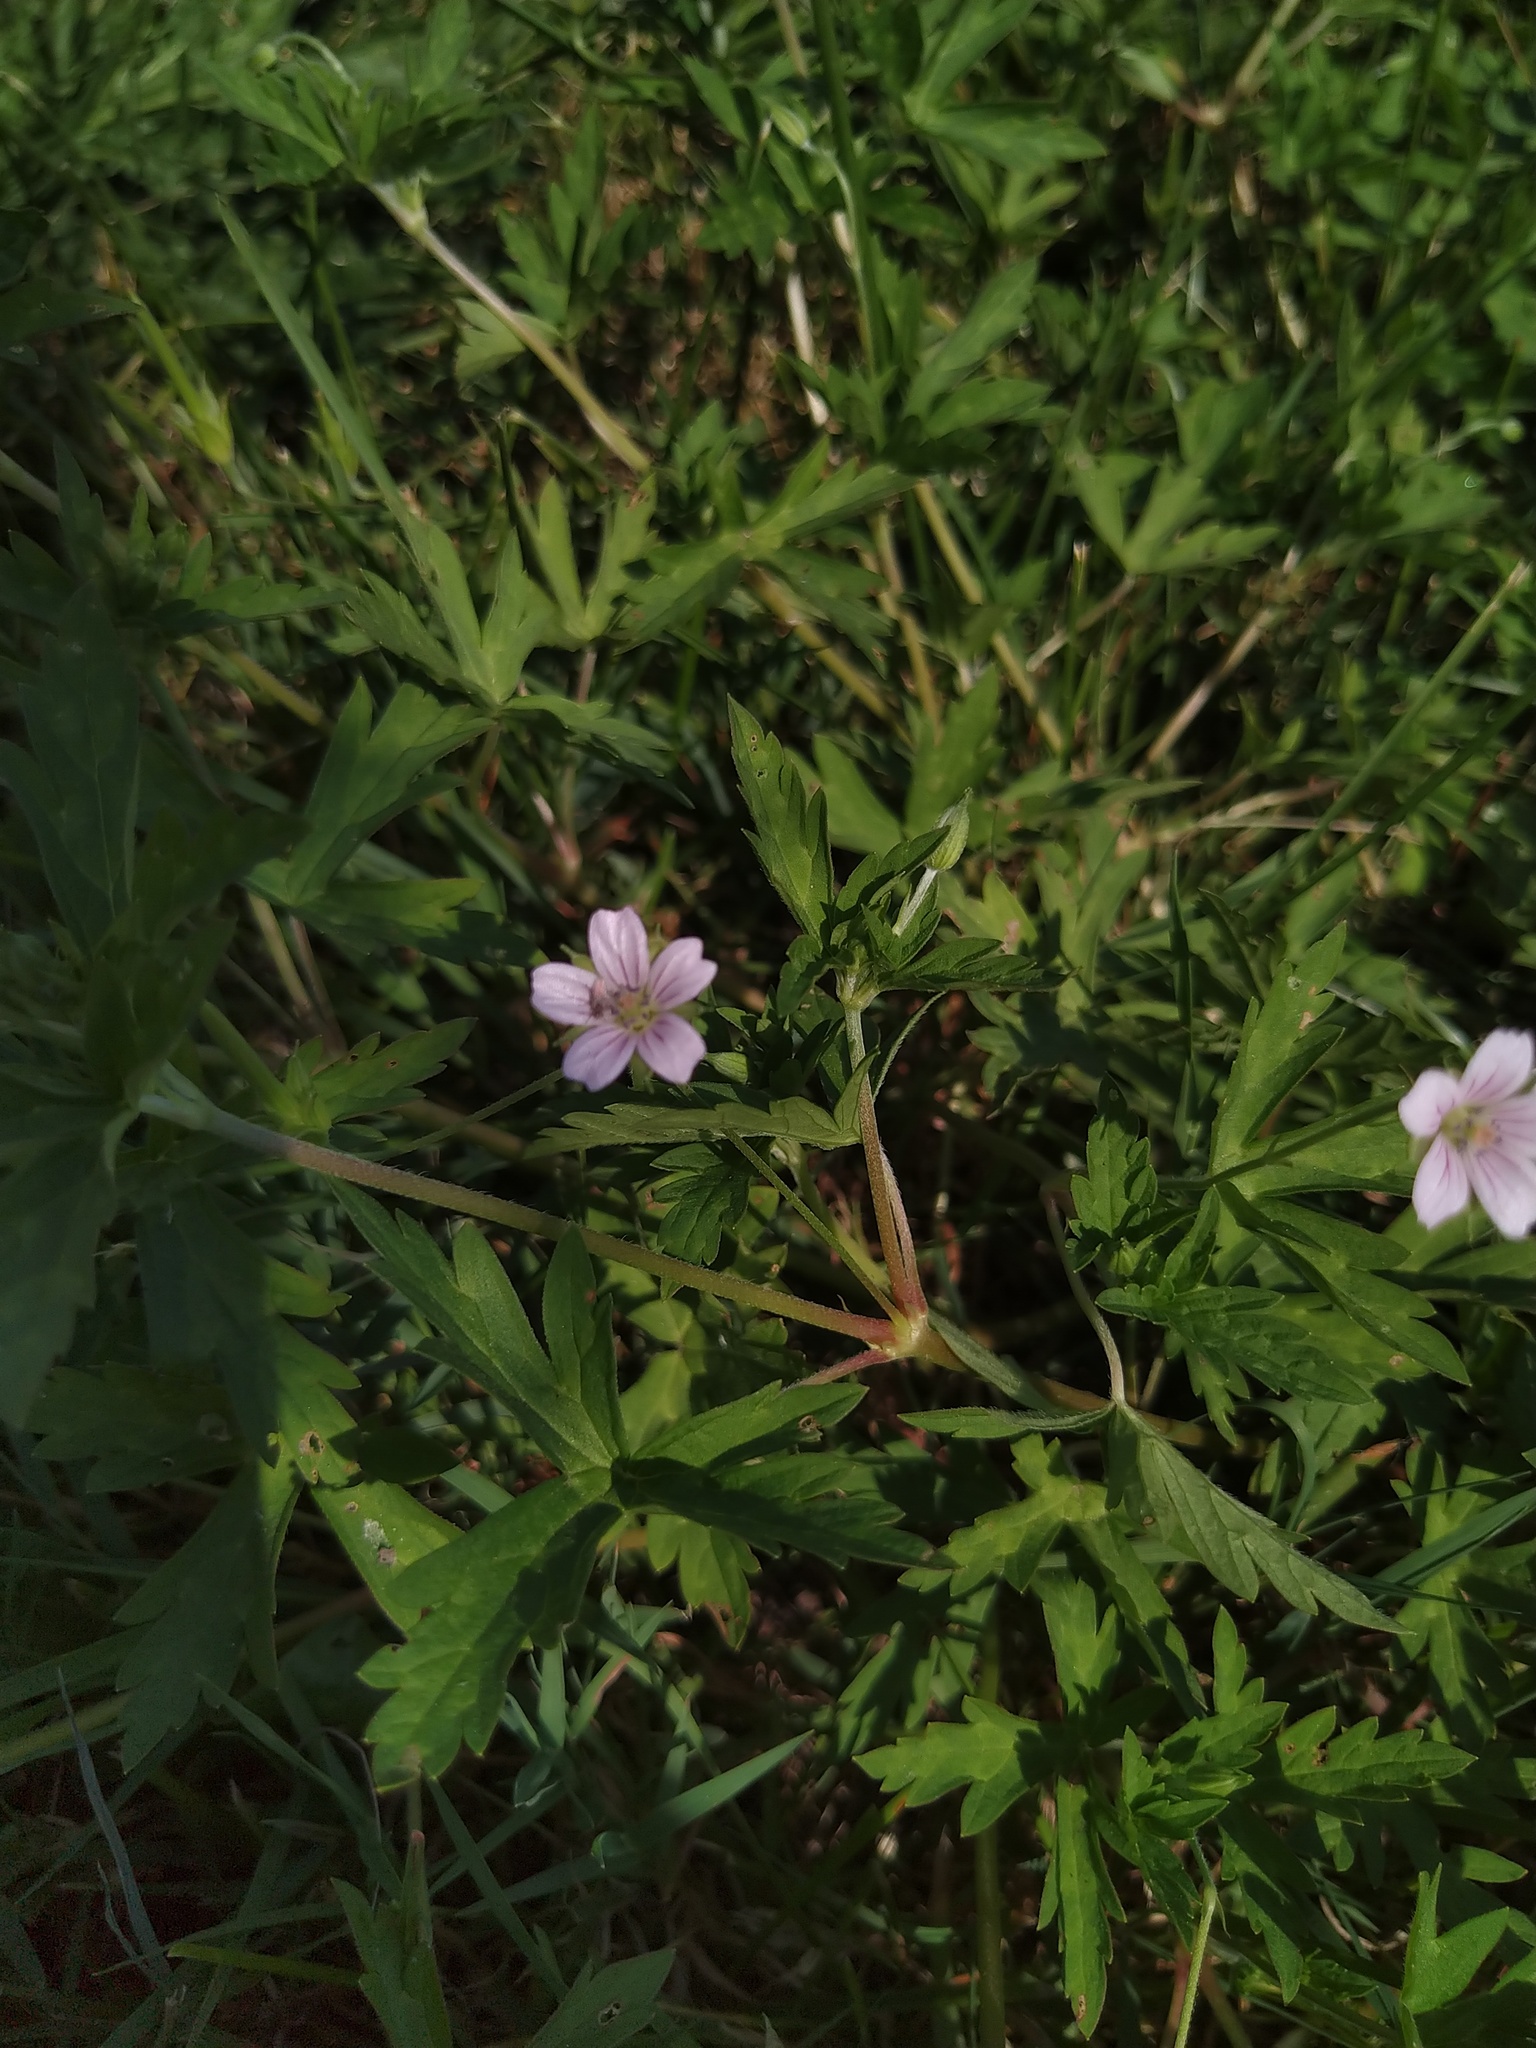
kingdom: Plantae
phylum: Tracheophyta
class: Magnoliopsida
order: Geraniales
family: Geraniaceae
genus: Geranium
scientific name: Geranium sibiricum
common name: Siberian crane's-bill
